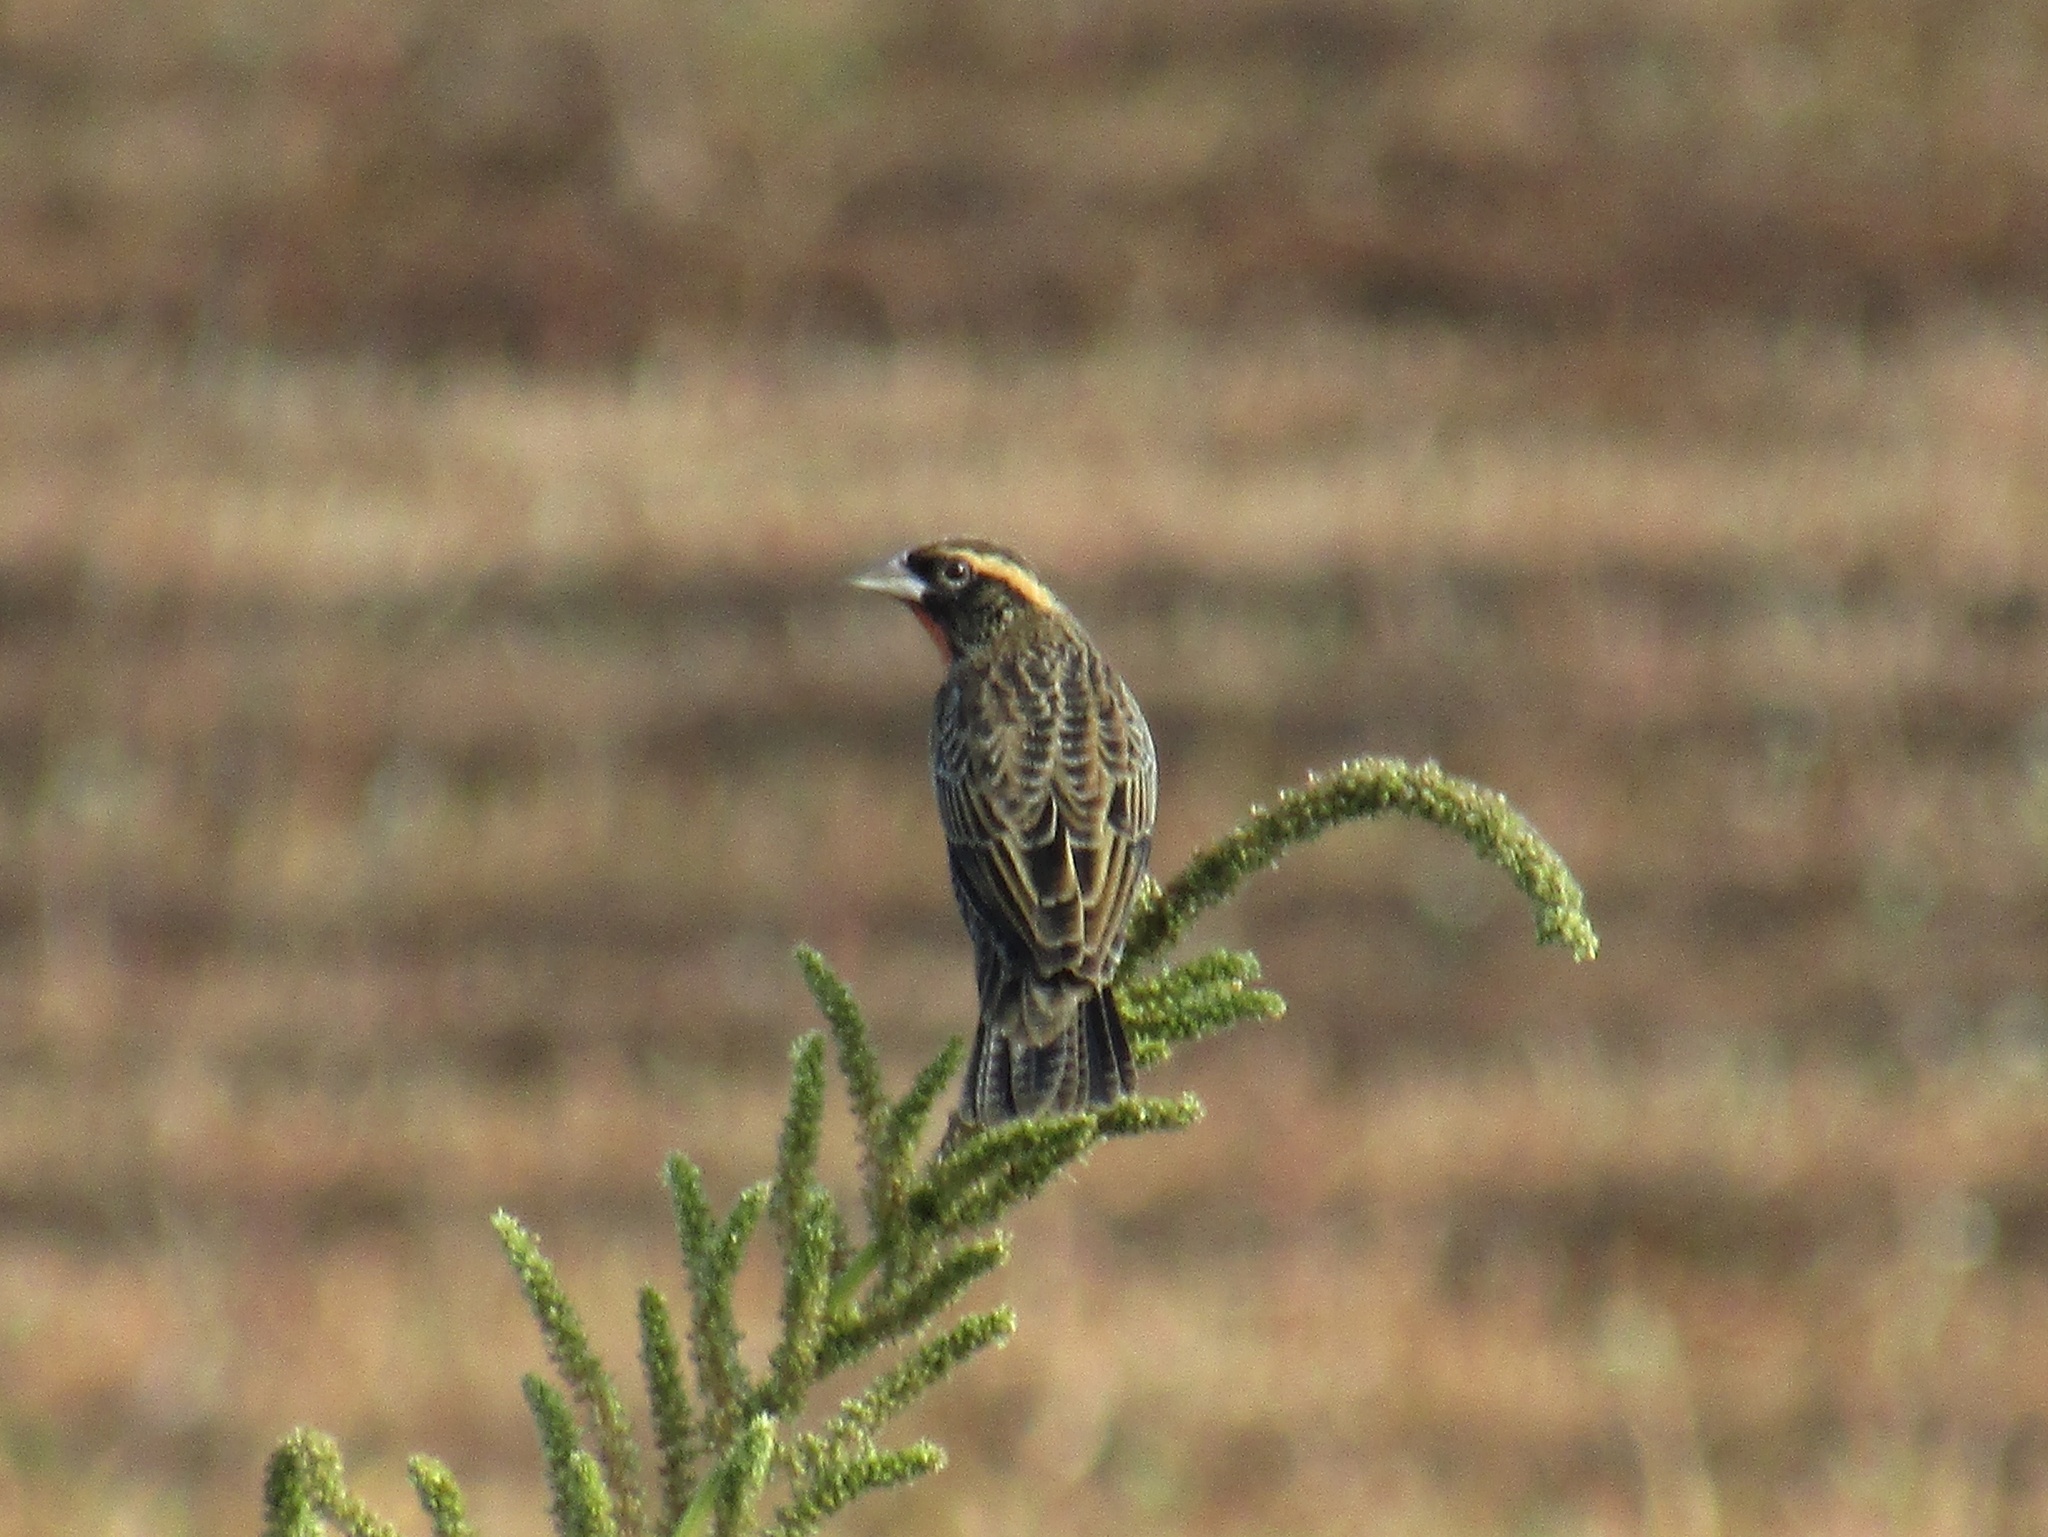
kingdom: Animalia
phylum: Chordata
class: Aves
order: Passeriformes
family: Icteridae
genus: Sturnella
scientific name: Sturnella superciliaris
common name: White-browed blackbird
